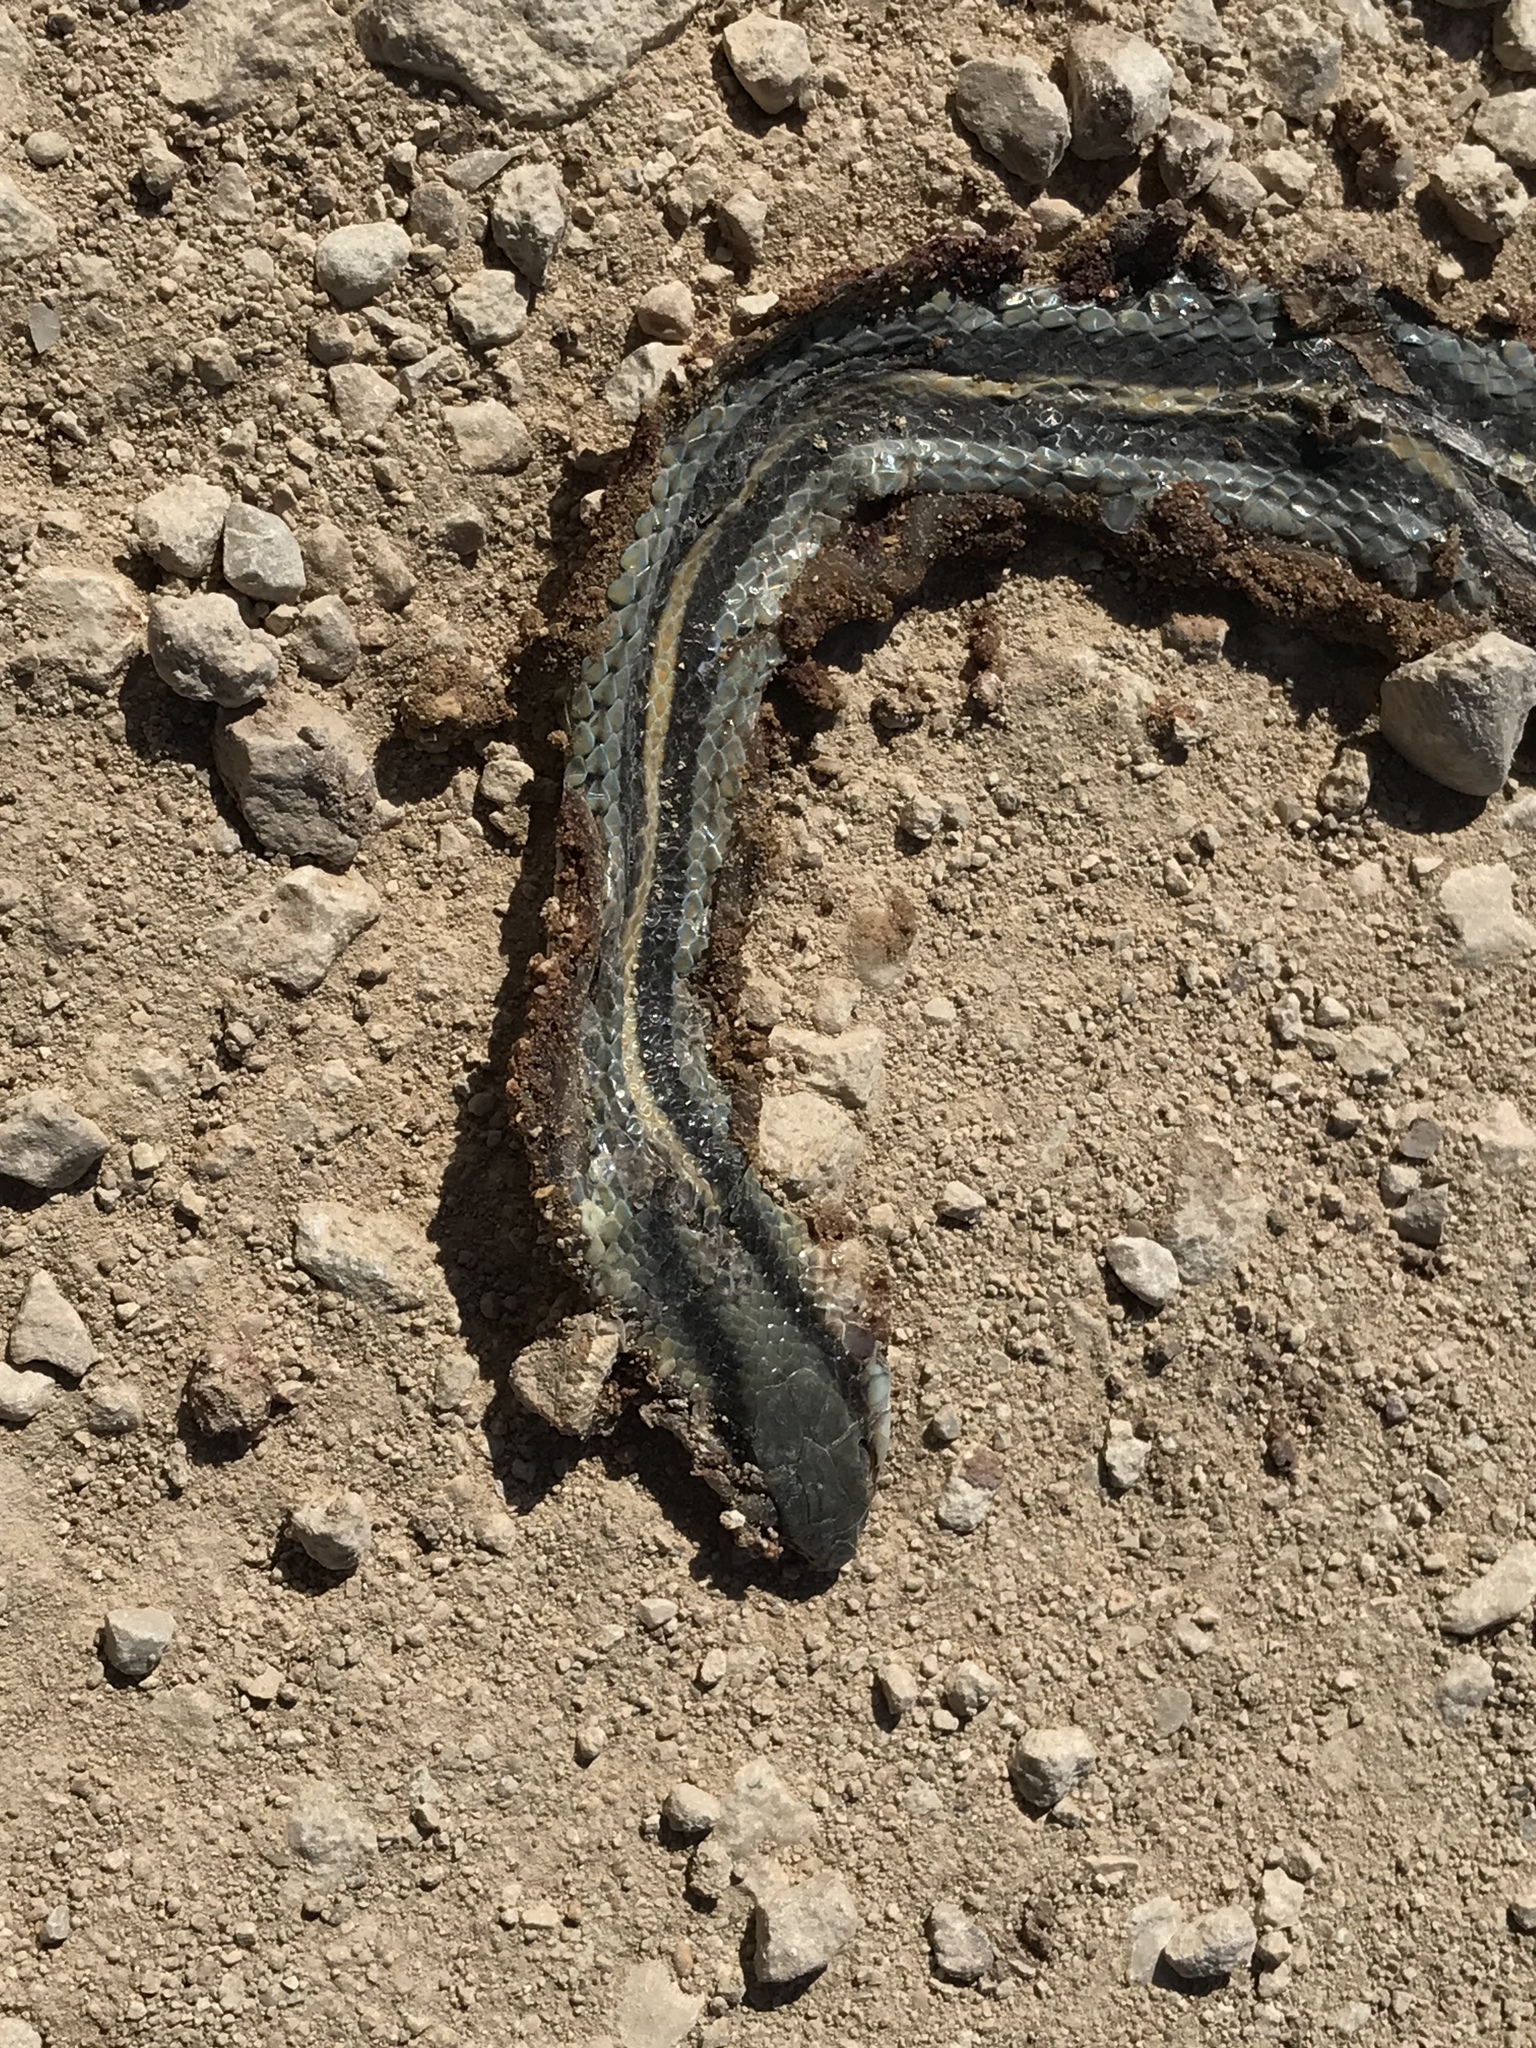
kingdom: Animalia
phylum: Chordata
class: Squamata
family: Colubridae
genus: Salvadora
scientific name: Salvadora lineata
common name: Texas patchnose snake
